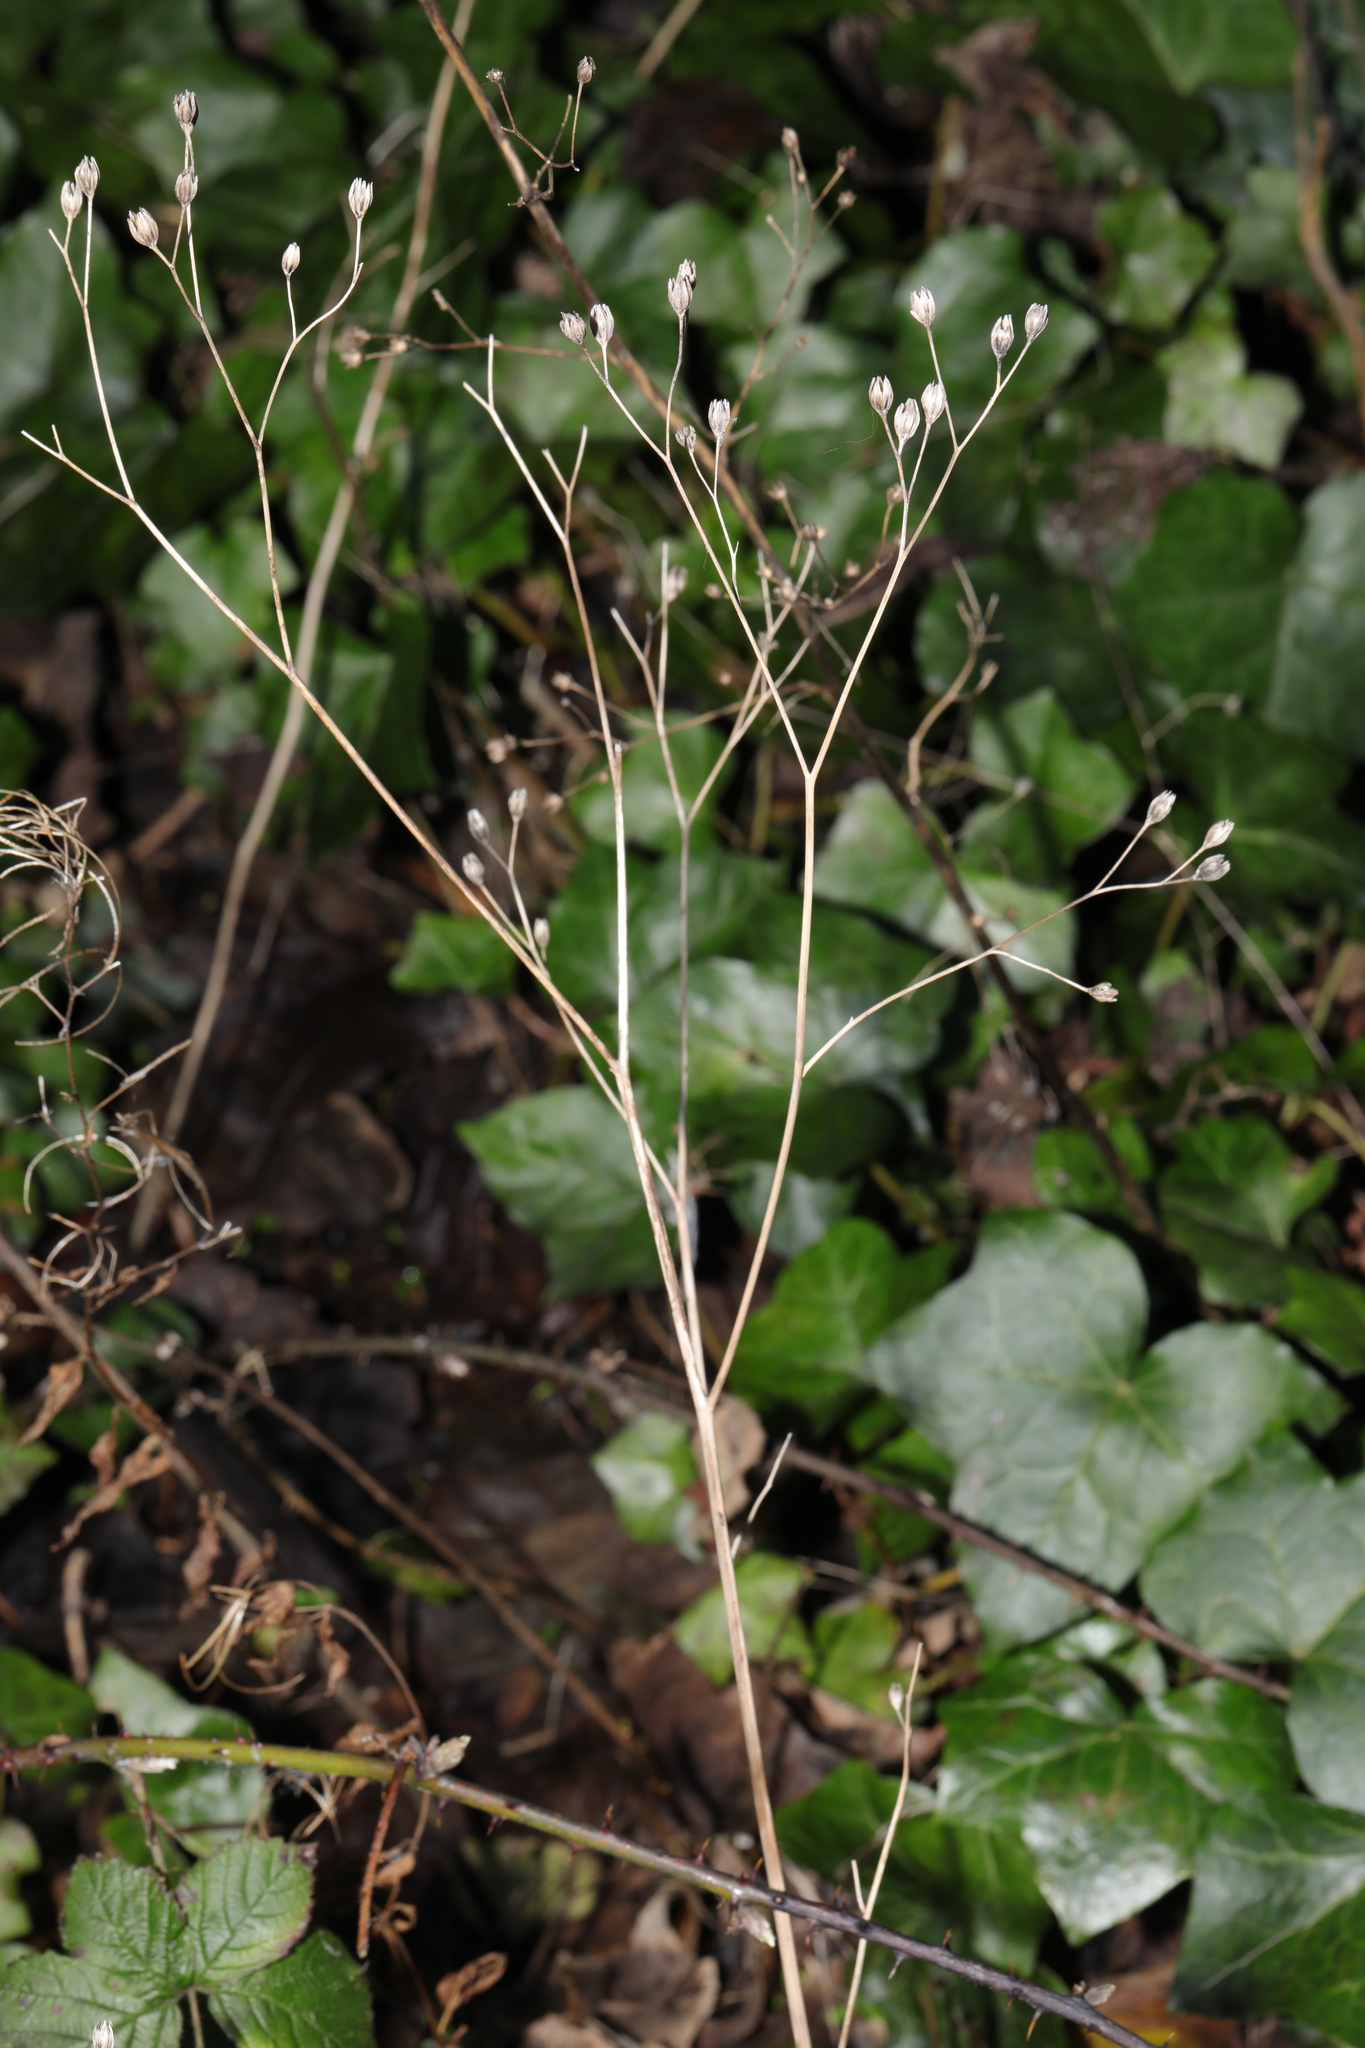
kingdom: Plantae
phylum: Tracheophyta
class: Magnoliopsida
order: Asterales
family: Asteraceae
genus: Lapsana
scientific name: Lapsana communis
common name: Nipplewort
